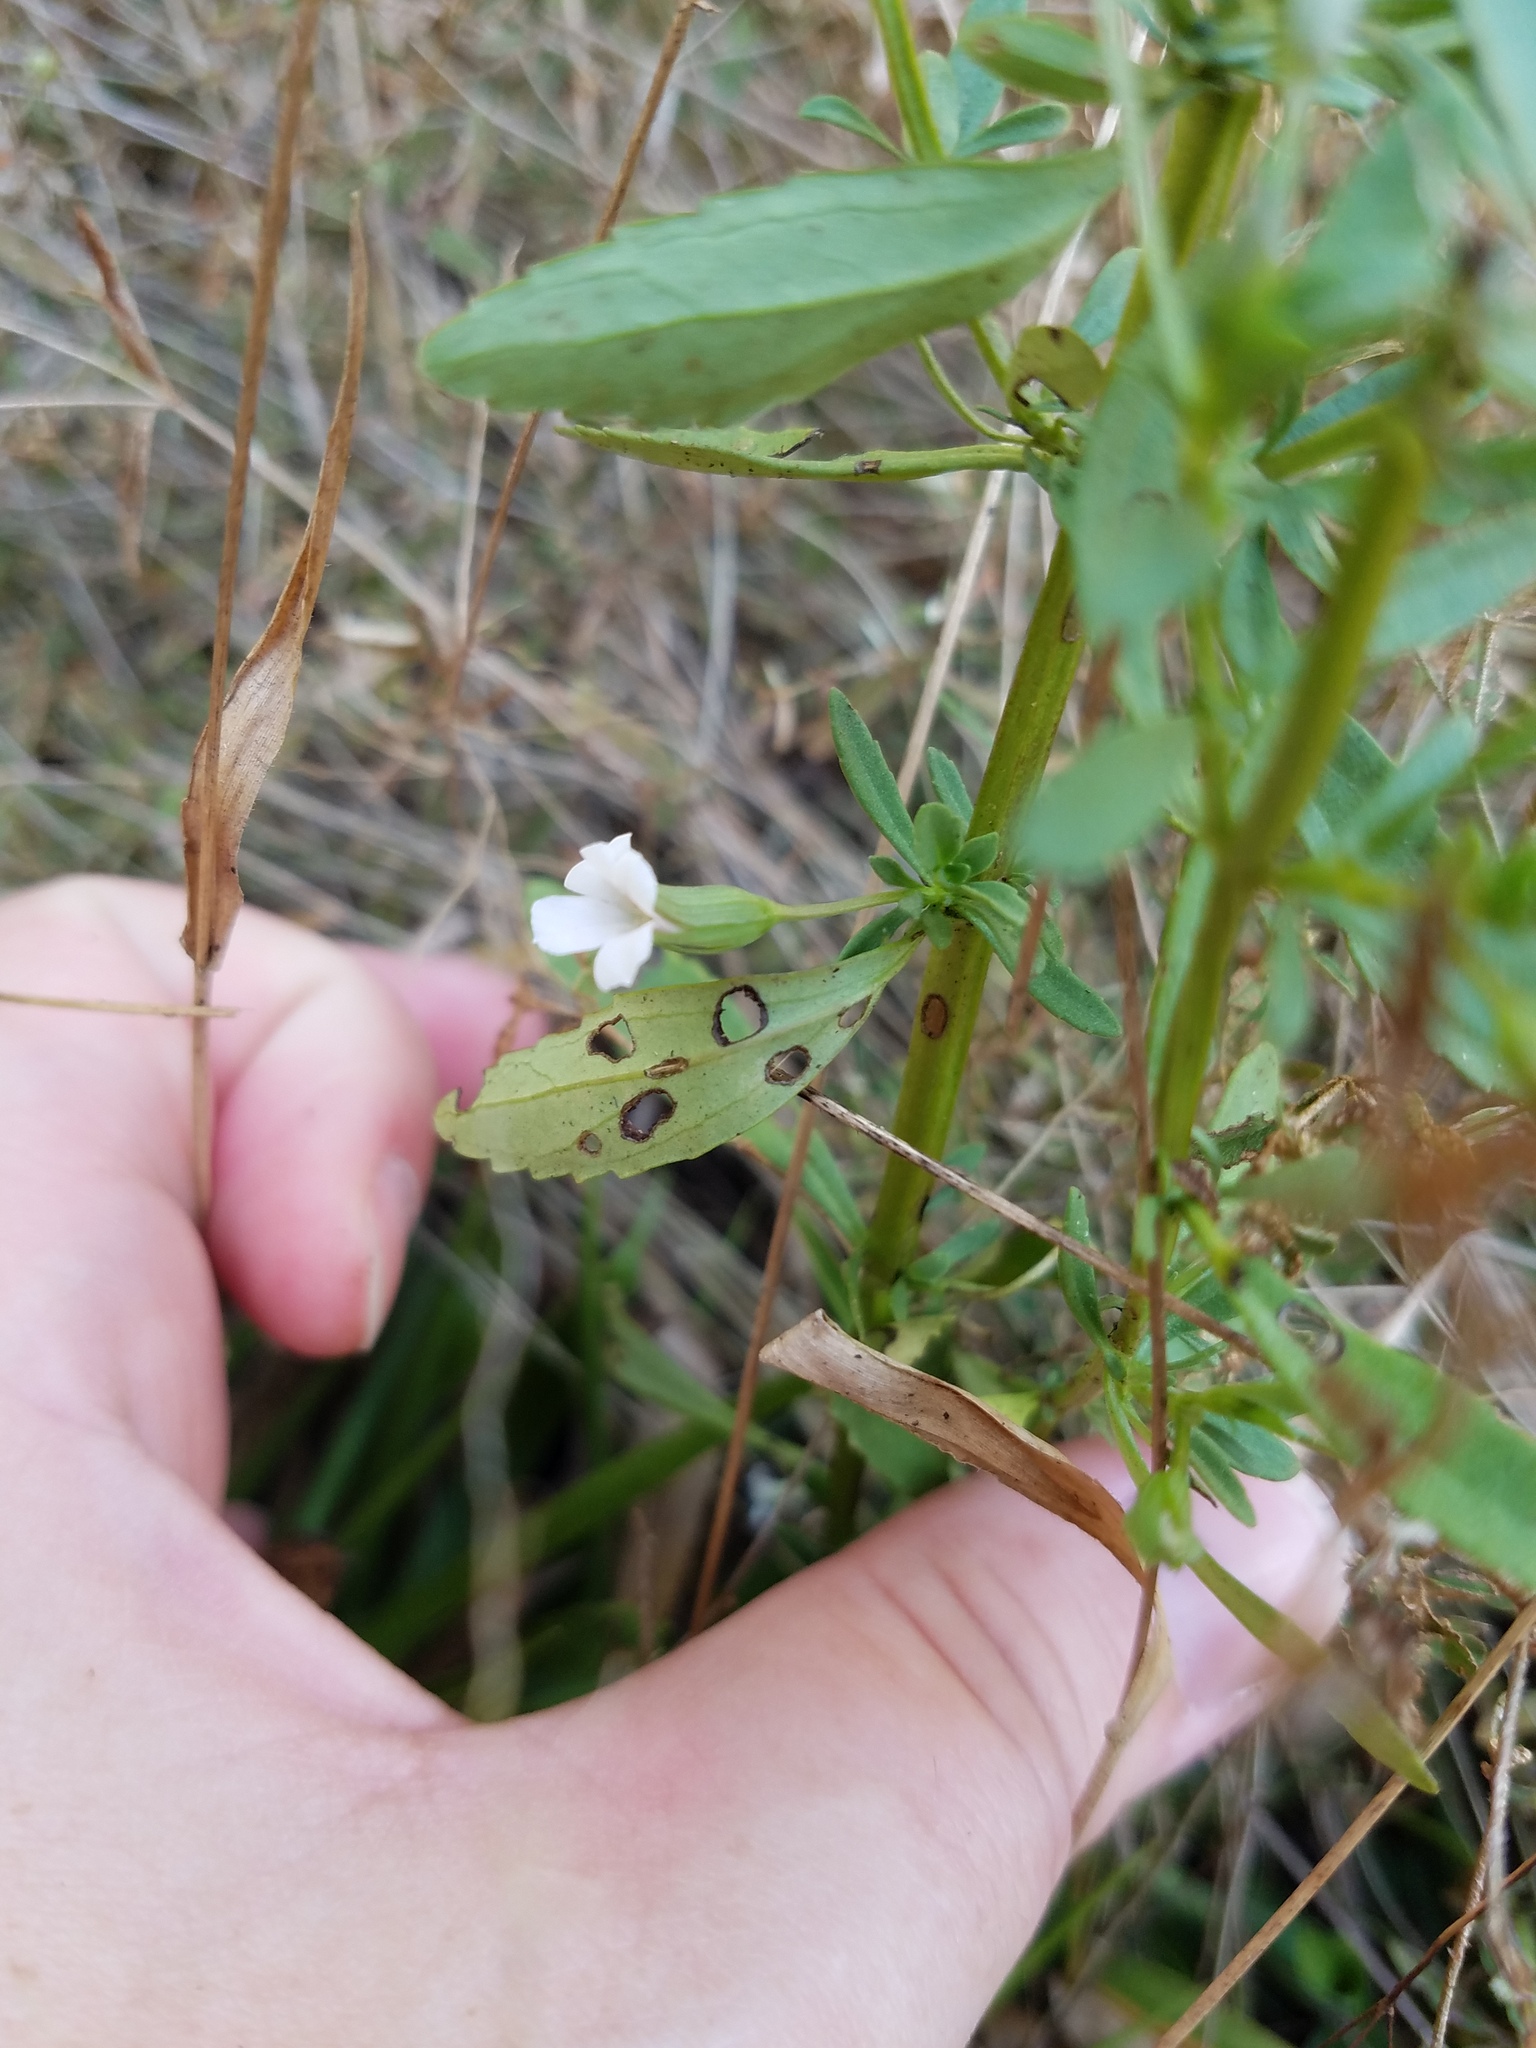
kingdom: Plantae
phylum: Tracheophyta
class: Magnoliopsida
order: Lamiales
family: Plantaginaceae
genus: Mecardonia
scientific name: Mecardonia acuminata
